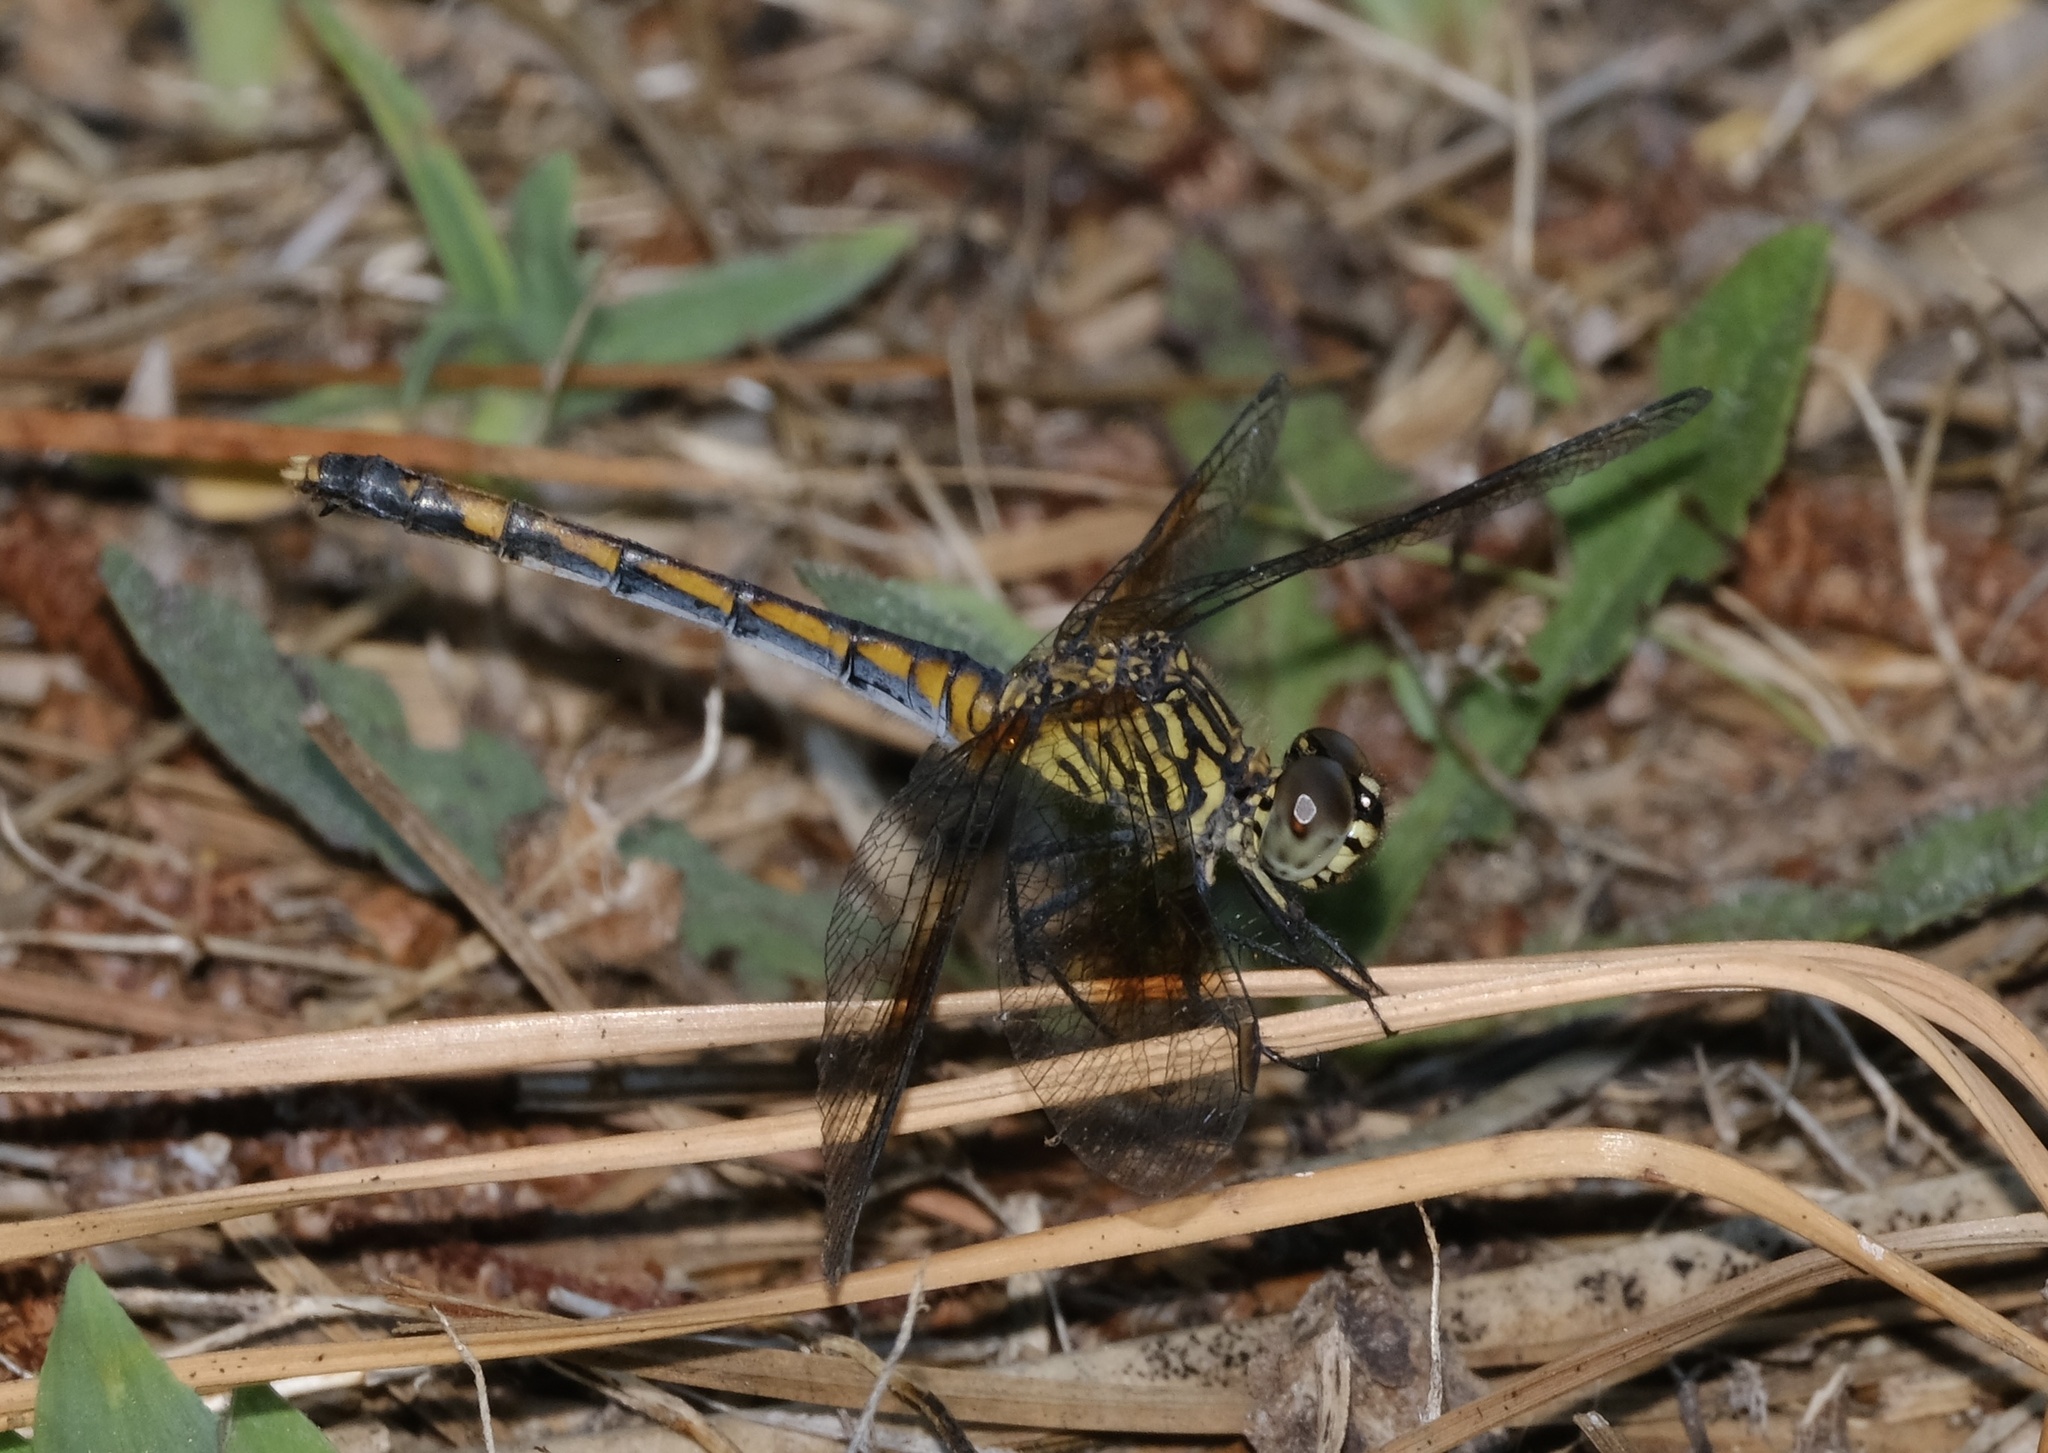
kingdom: Animalia
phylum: Arthropoda
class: Insecta
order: Odonata
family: Libellulidae
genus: Erythrodiplax
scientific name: Erythrodiplax berenice
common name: Seaside dragonlet
